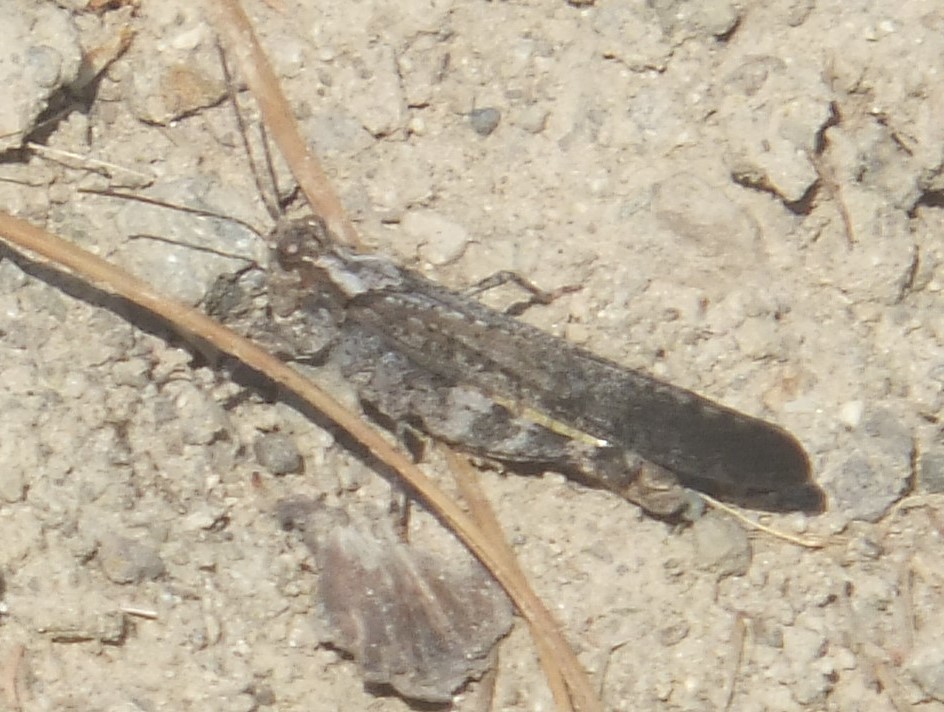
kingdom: Animalia
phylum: Arthropoda
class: Insecta
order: Orthoptera
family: Acrididae
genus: Trimerotropis
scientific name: Trimerotropis verruculata
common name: Crackling forest grasshopper
